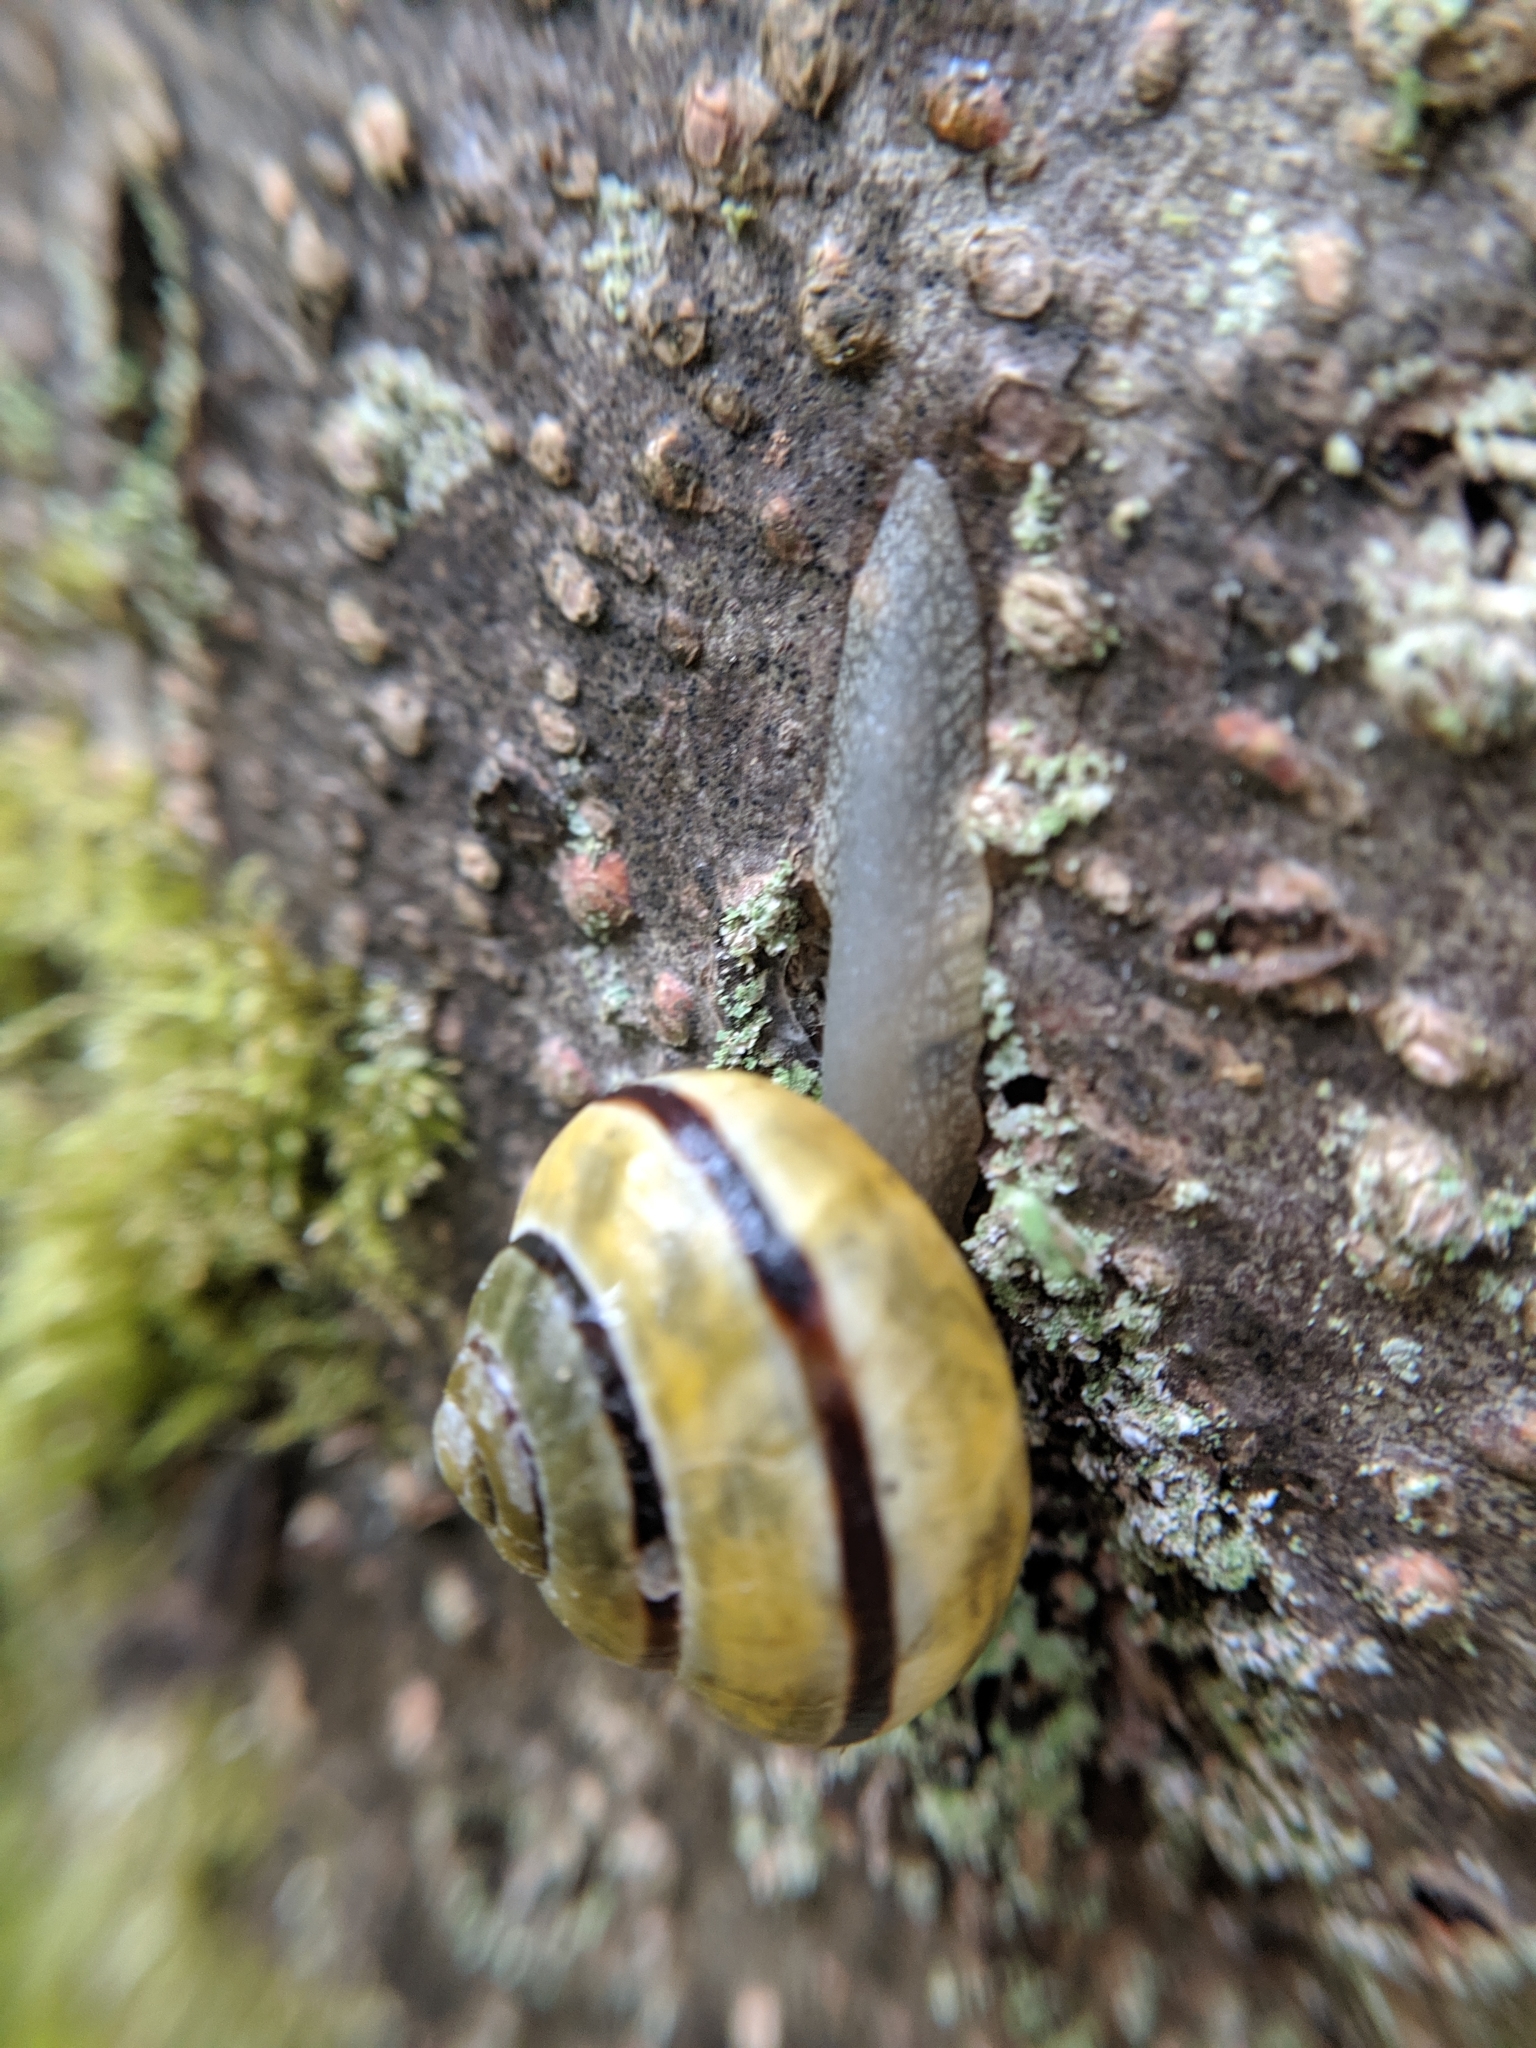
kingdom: Animalia
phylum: Mollusca
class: Gastropoda
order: Stylommatophora
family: Helicidae
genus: Cepaea
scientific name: Cepaea nemoralis
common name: Grovesnail
